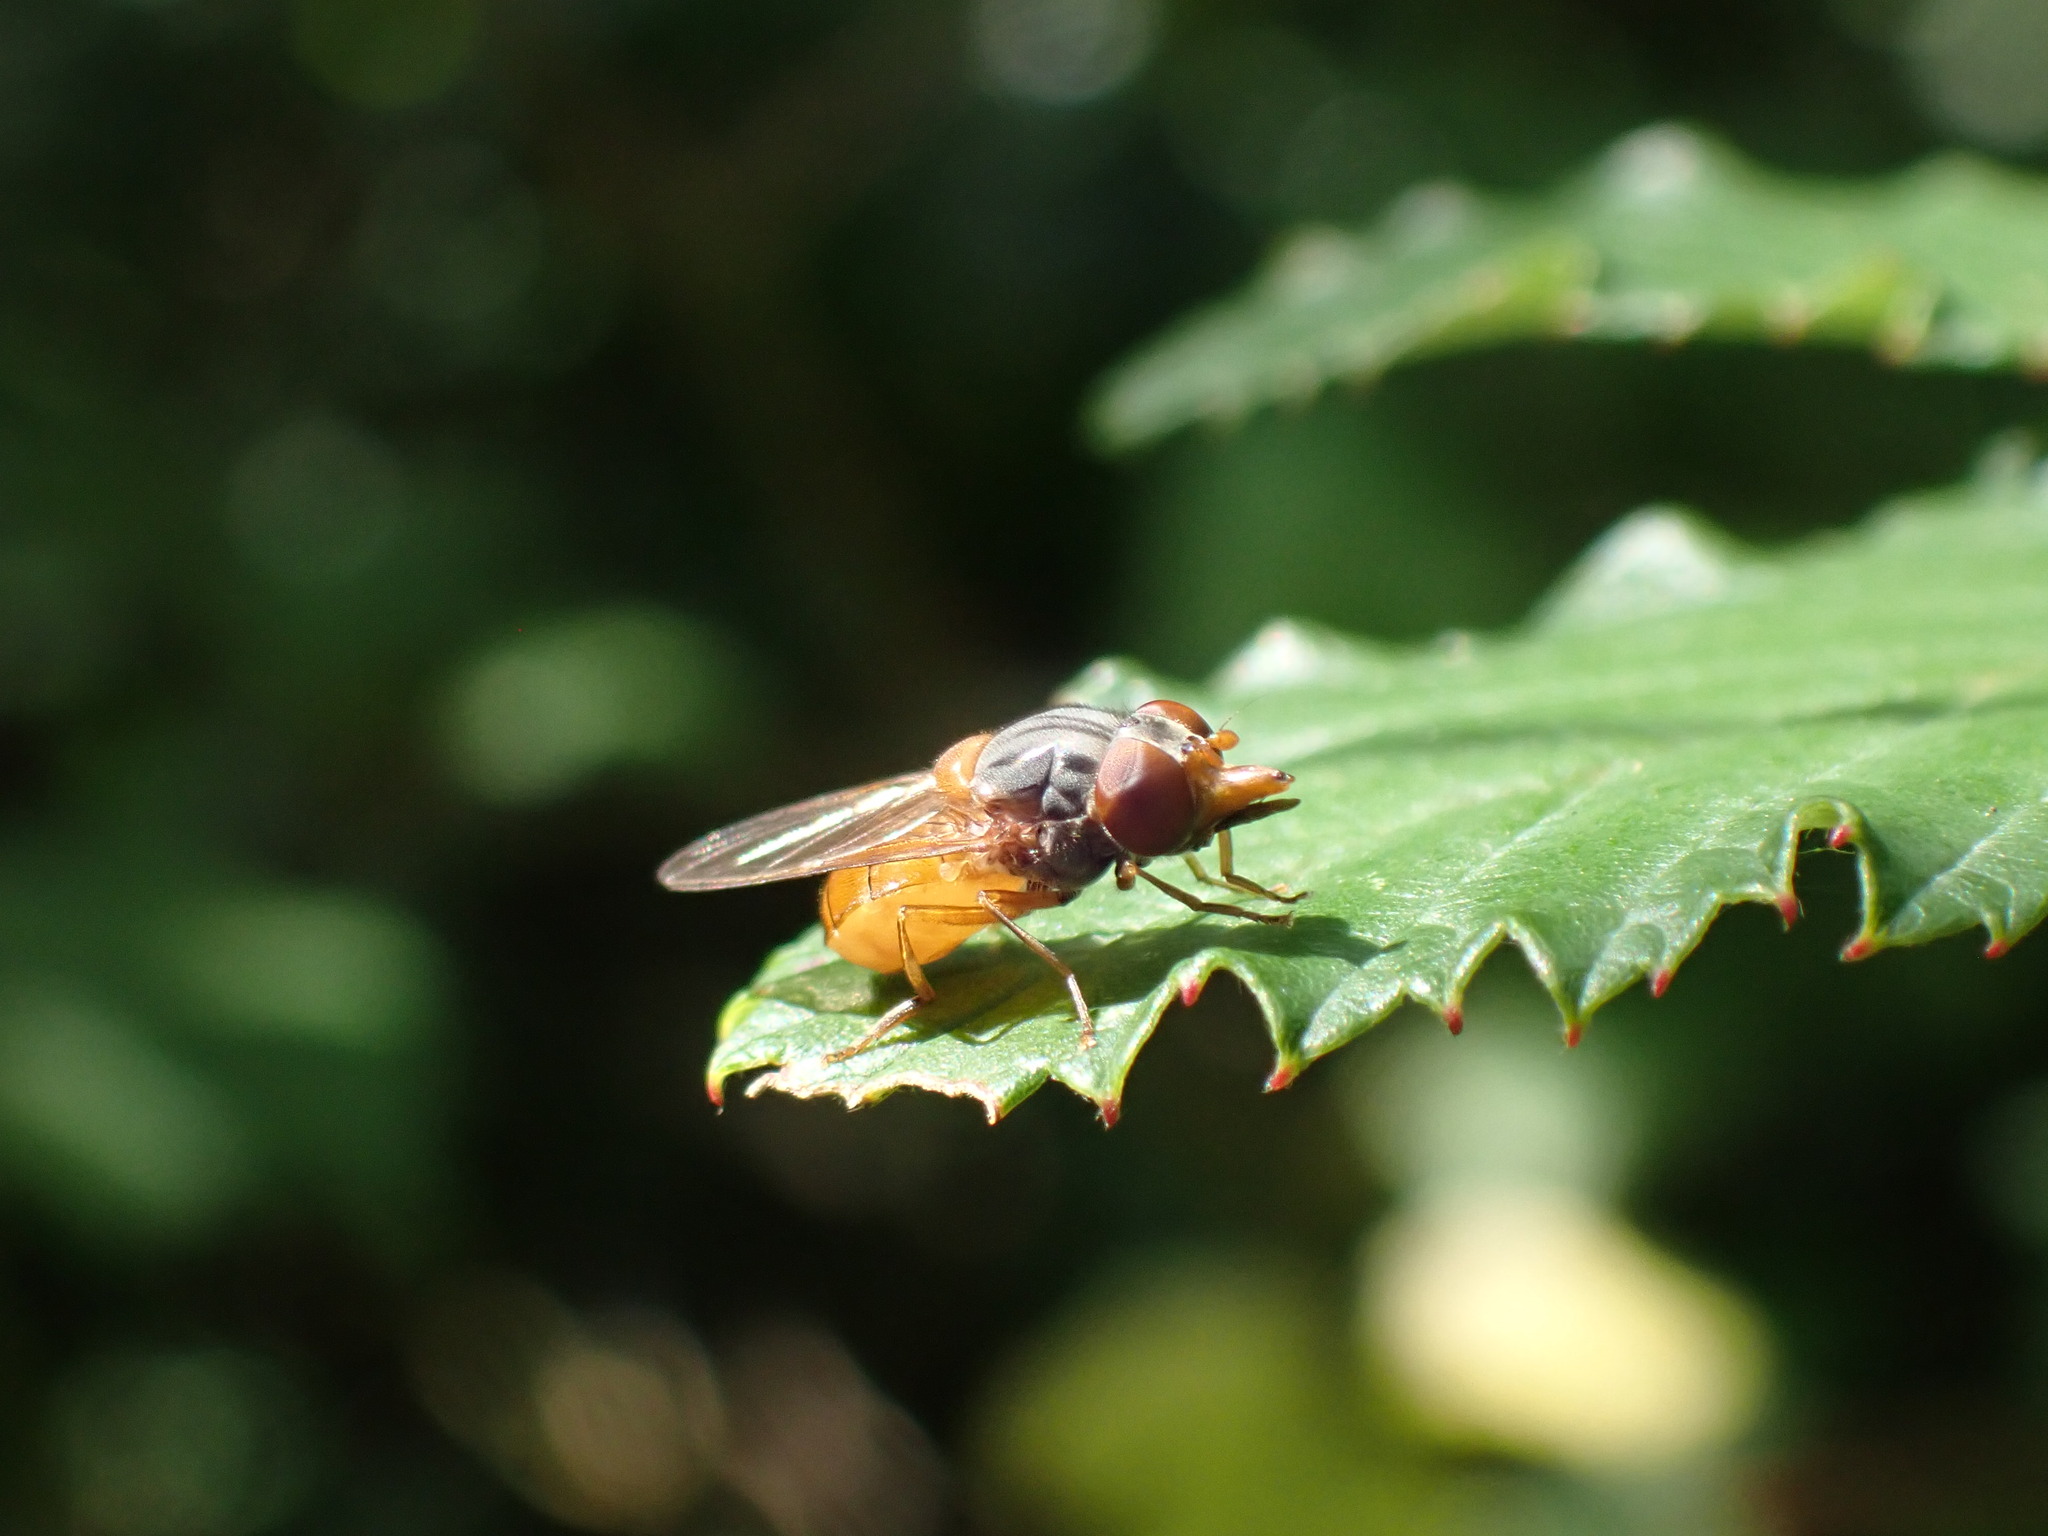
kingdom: Animalia
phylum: Arthropoda
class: Insecta
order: Diptera
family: Syrphidae
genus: Rhingia
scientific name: Rhingia rostrata
